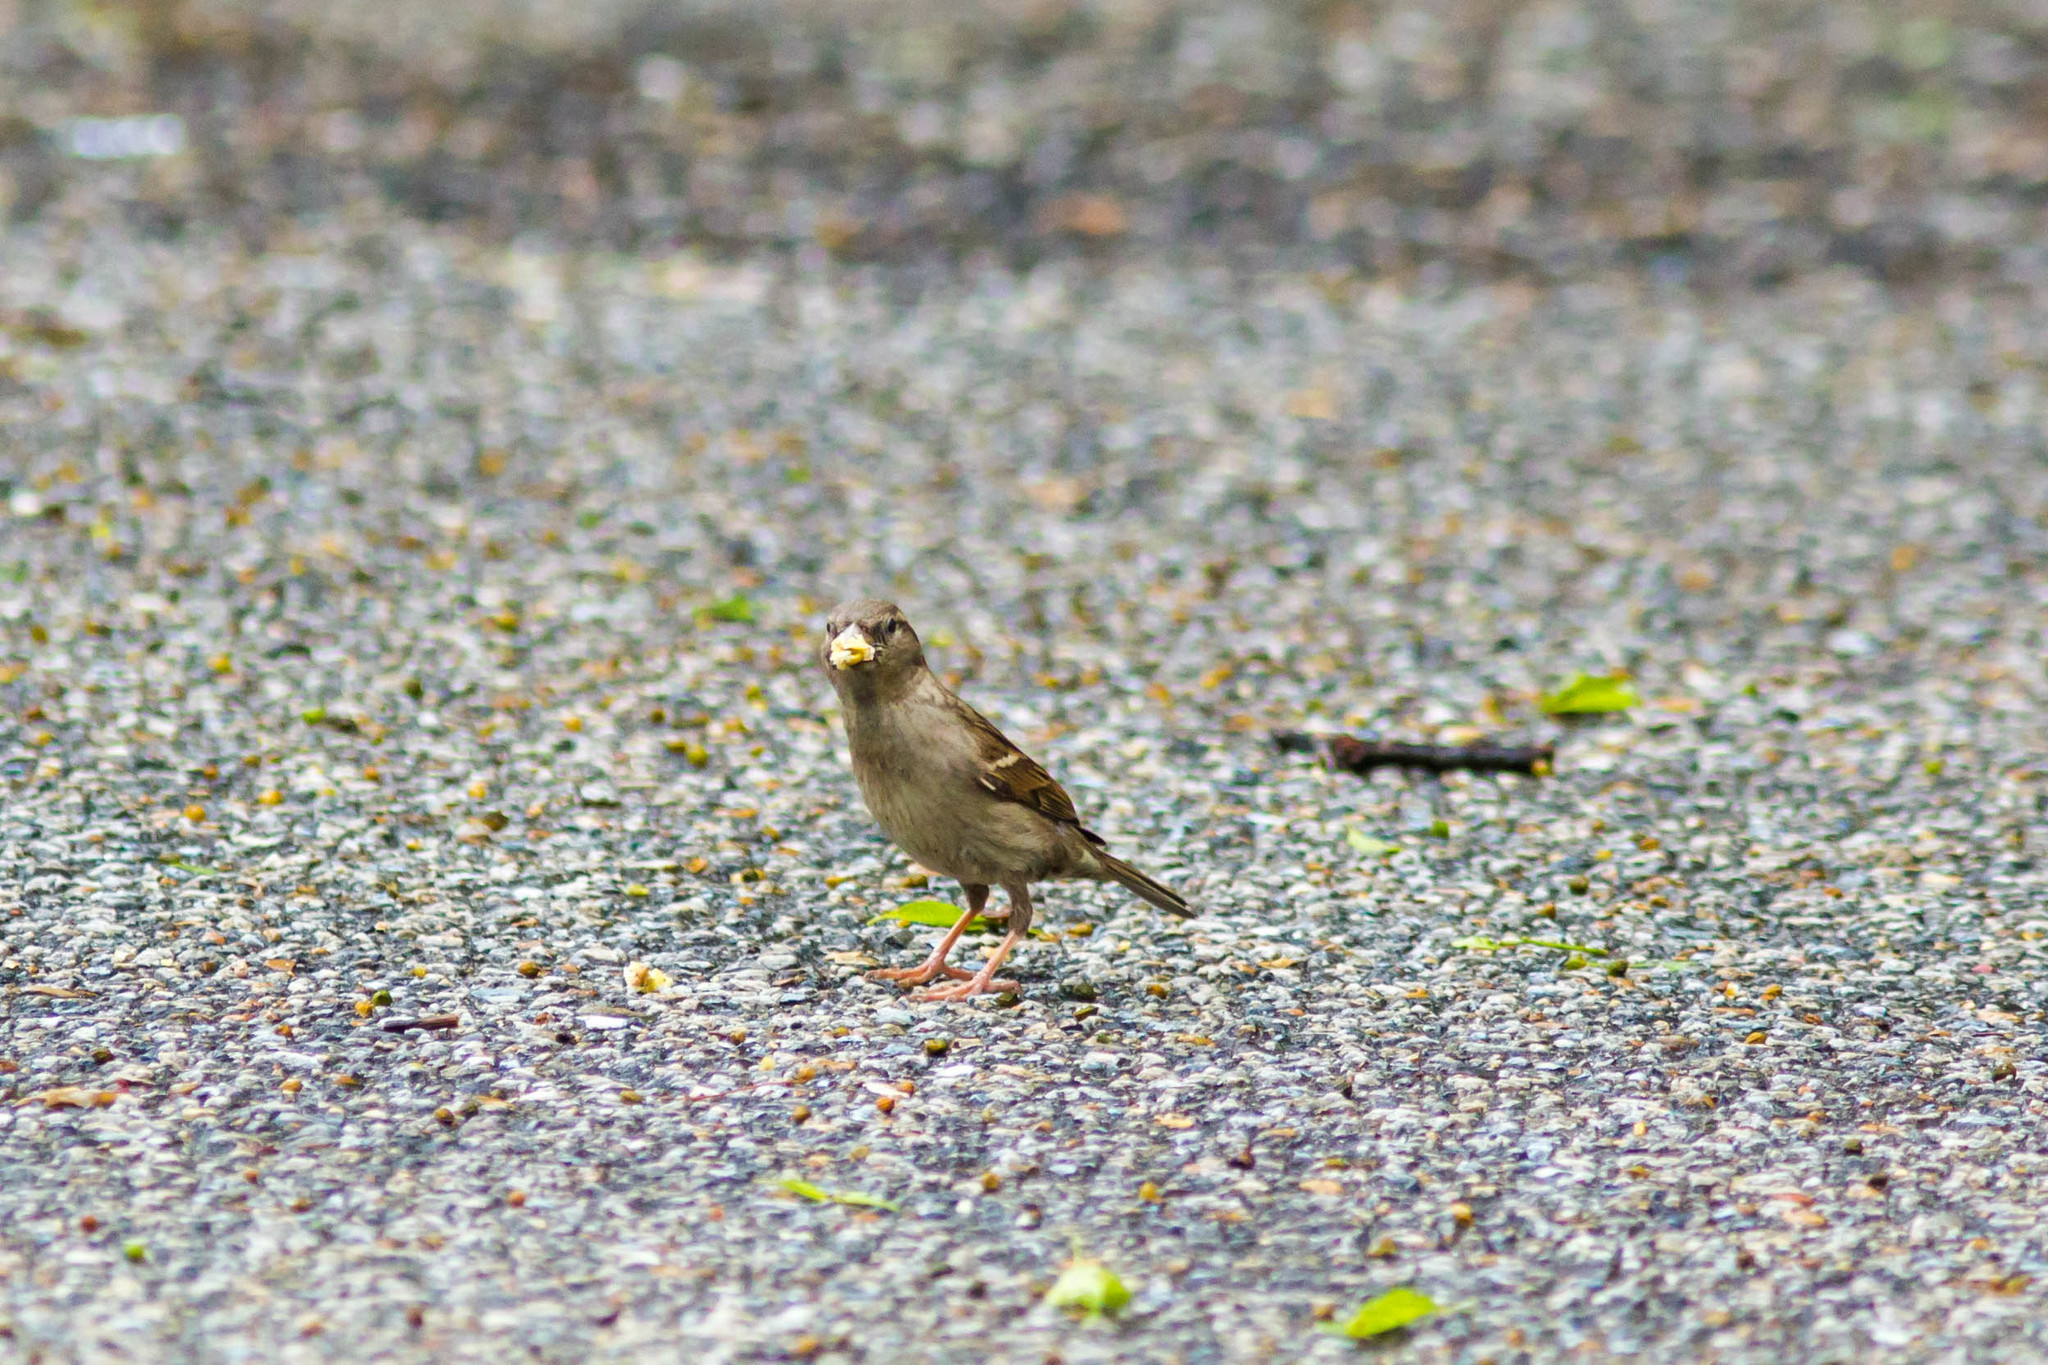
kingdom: Animalia
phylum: Chordata
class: Aves
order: Passeriformes
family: Passeridae
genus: Passer
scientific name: Passer domesticus
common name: House sparrow
